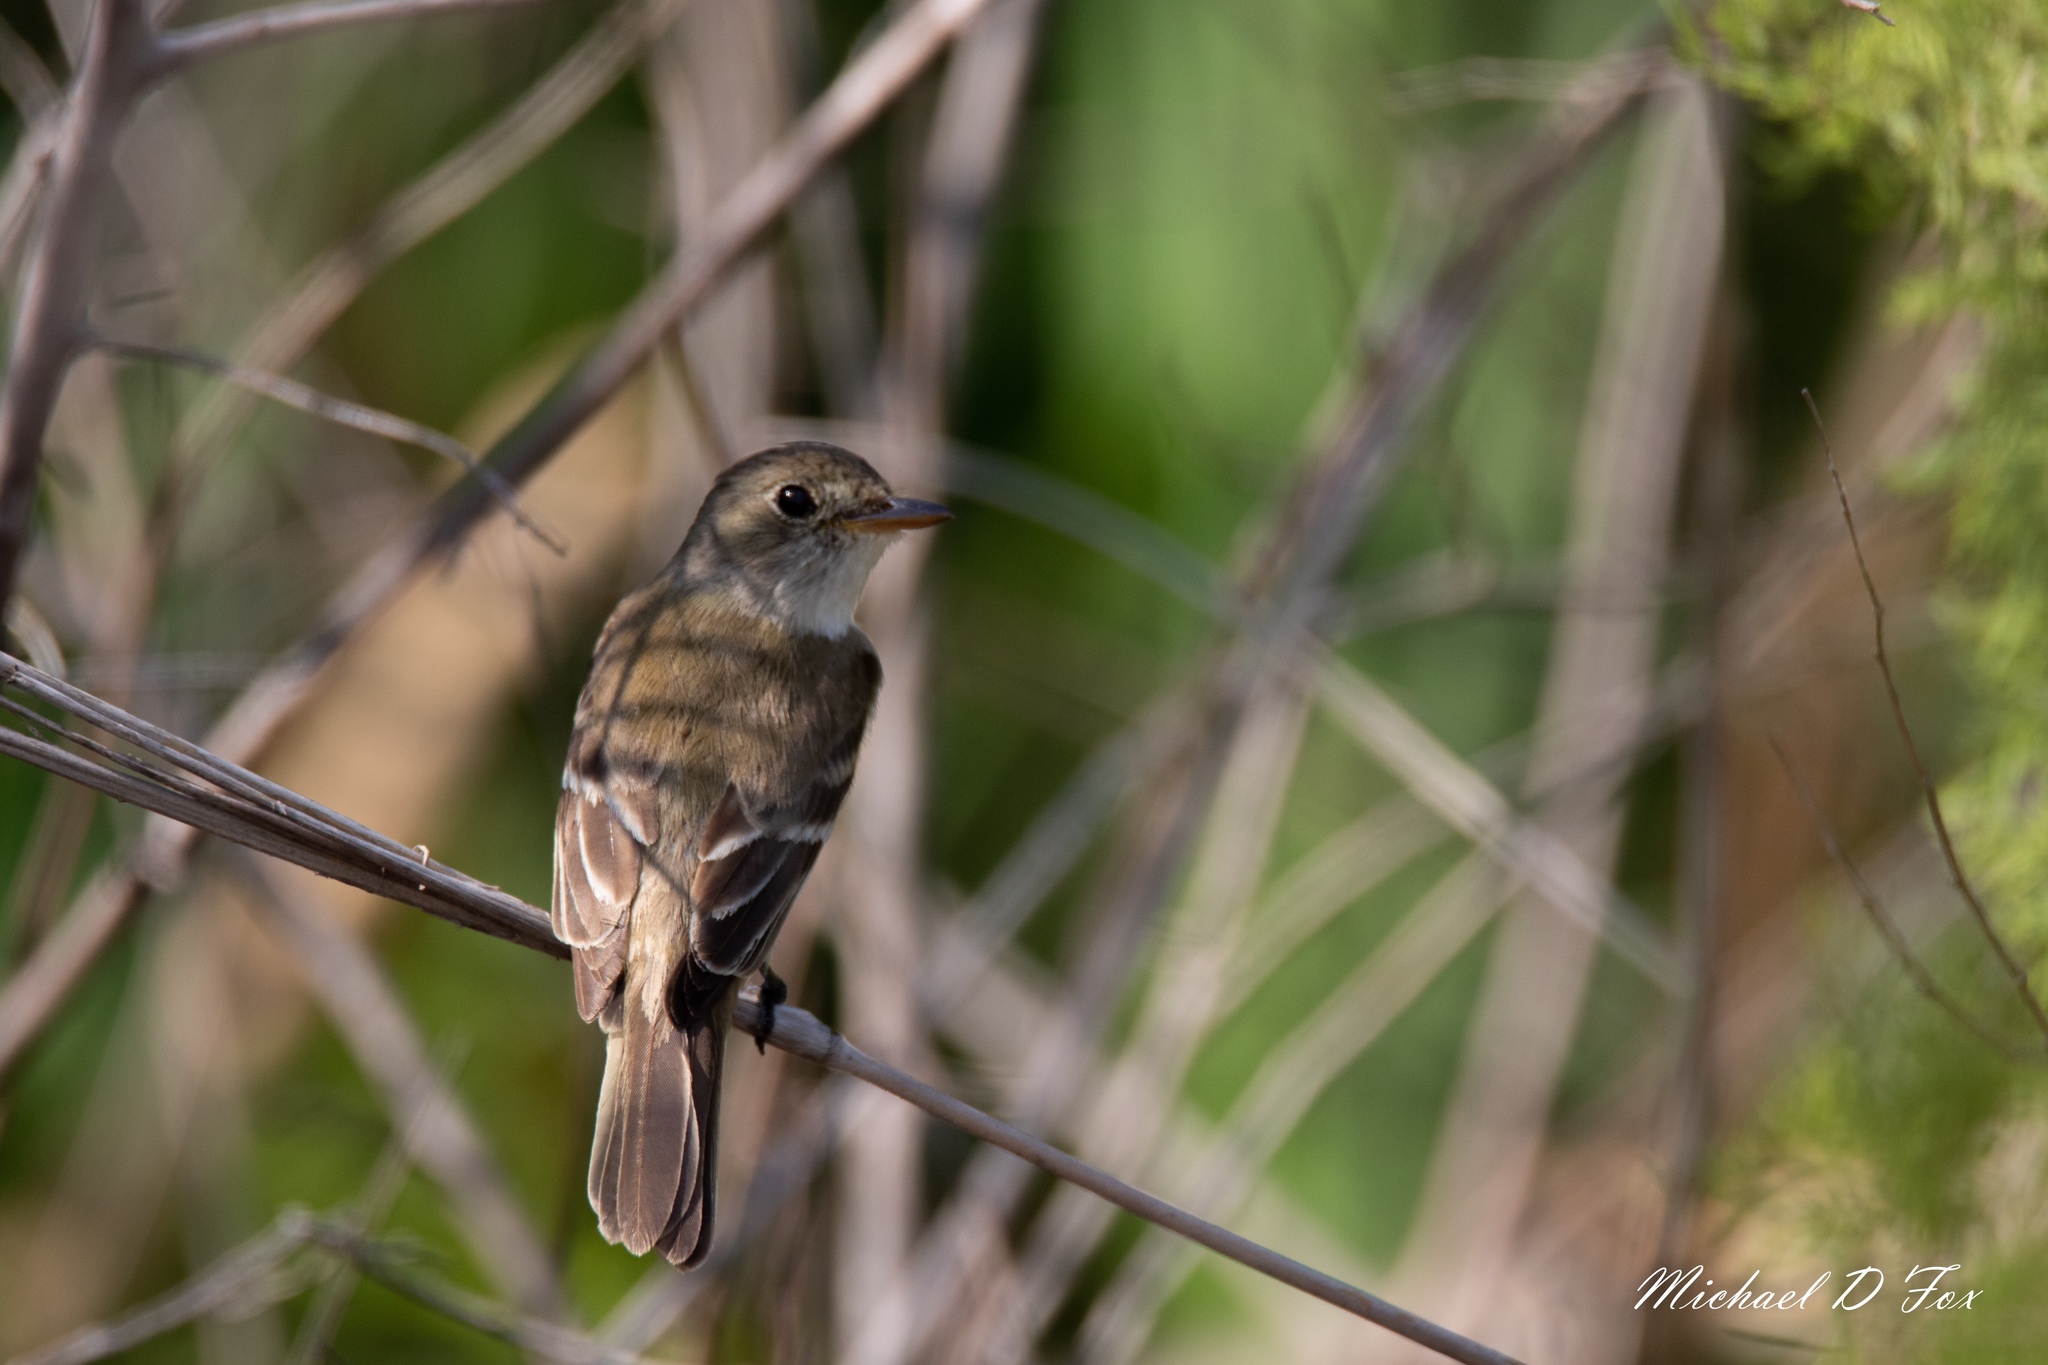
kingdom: Animalia
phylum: Chordata
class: Aves
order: Passeriformes
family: Tyrannidae
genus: Empidonax
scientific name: Empidonax
